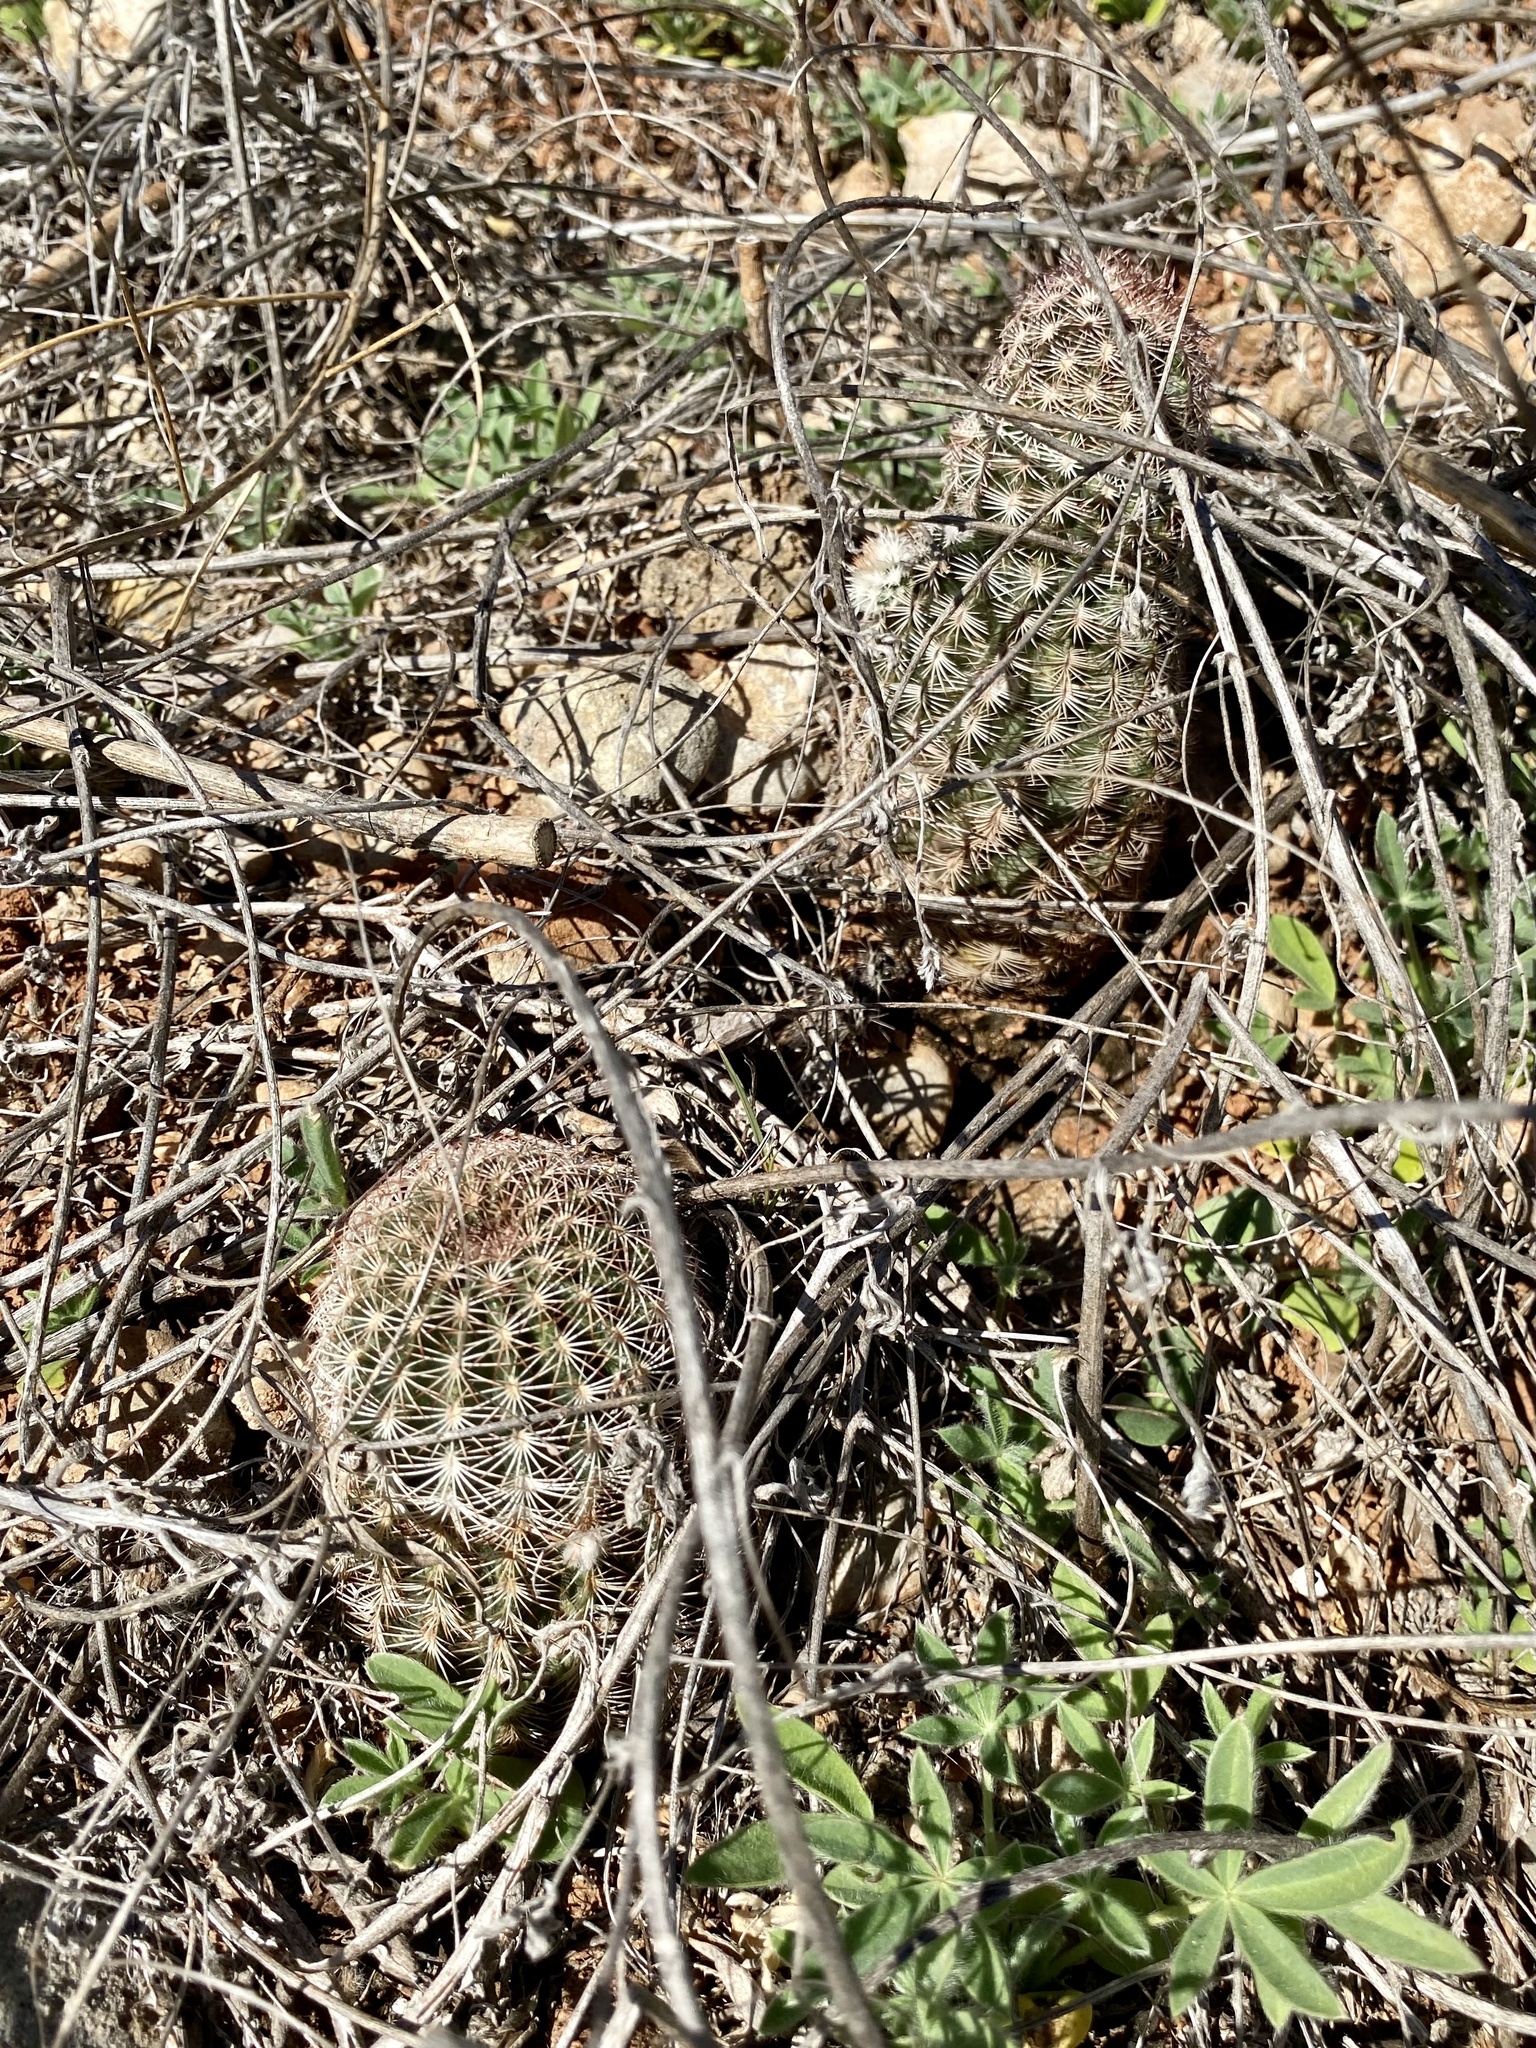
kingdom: Plantae
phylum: Tracheophyta
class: Magnoliopsida
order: Caryophyllales
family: Cactaceae
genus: Echinocereus
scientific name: Echinocereus reichenbachii
